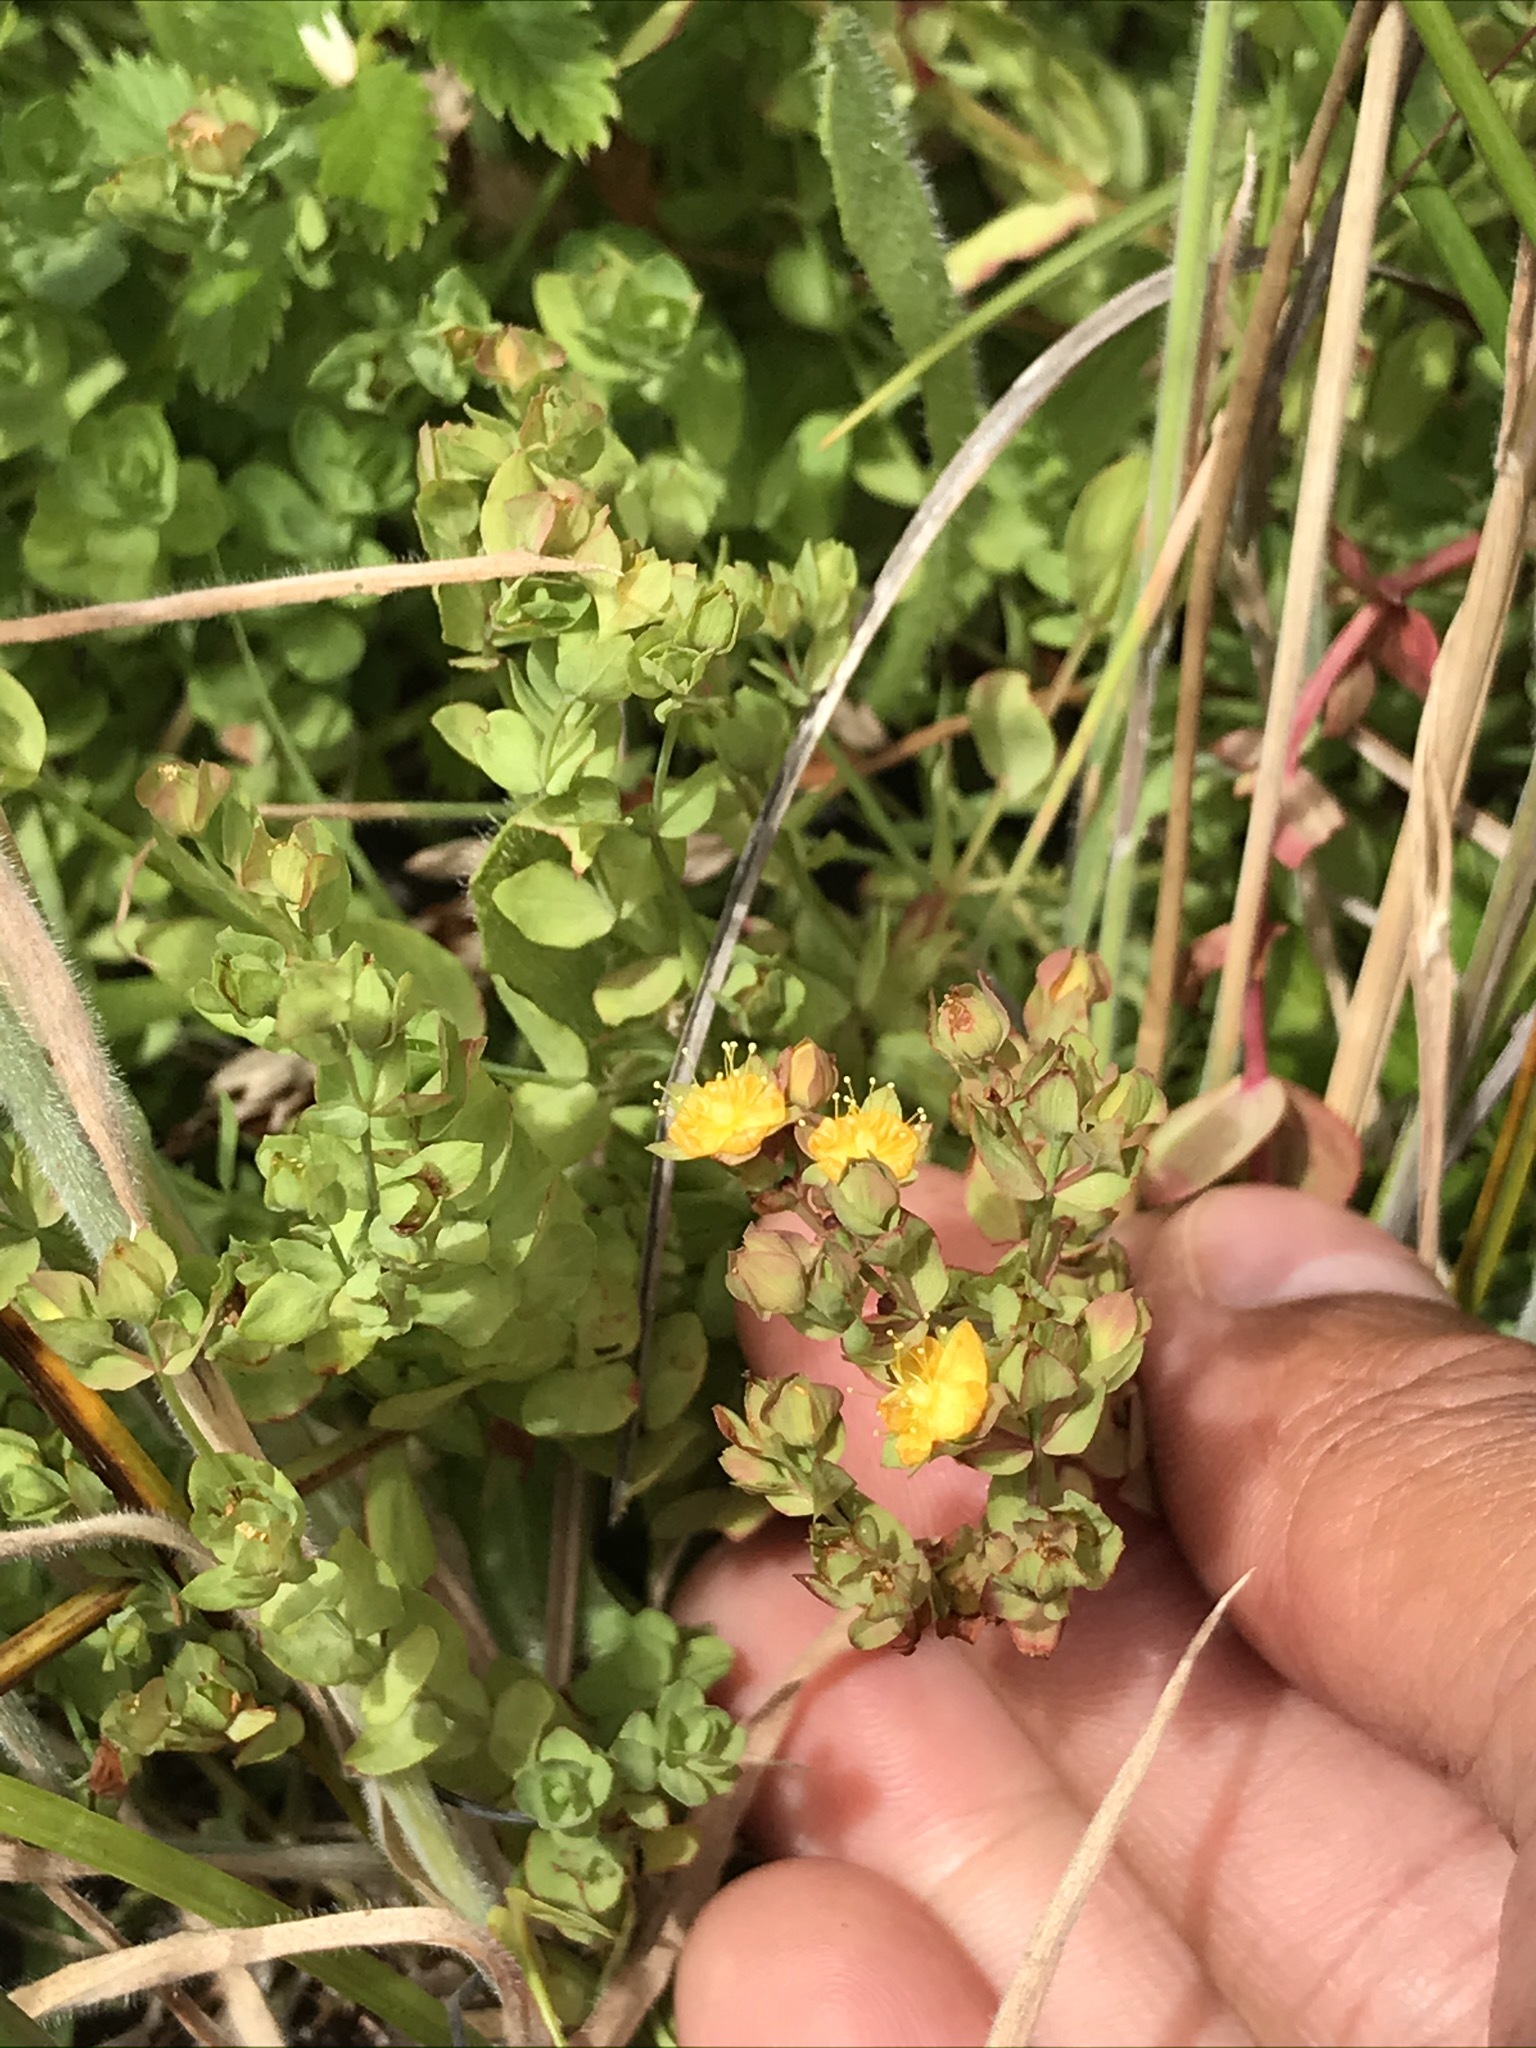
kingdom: Plantae
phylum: Tracheophyta
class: Magnoliopsida
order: Malpighiales
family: Hypericaceae
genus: Hypericum
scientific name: Hypericum anagalloides
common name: Bog st. john's-wort
